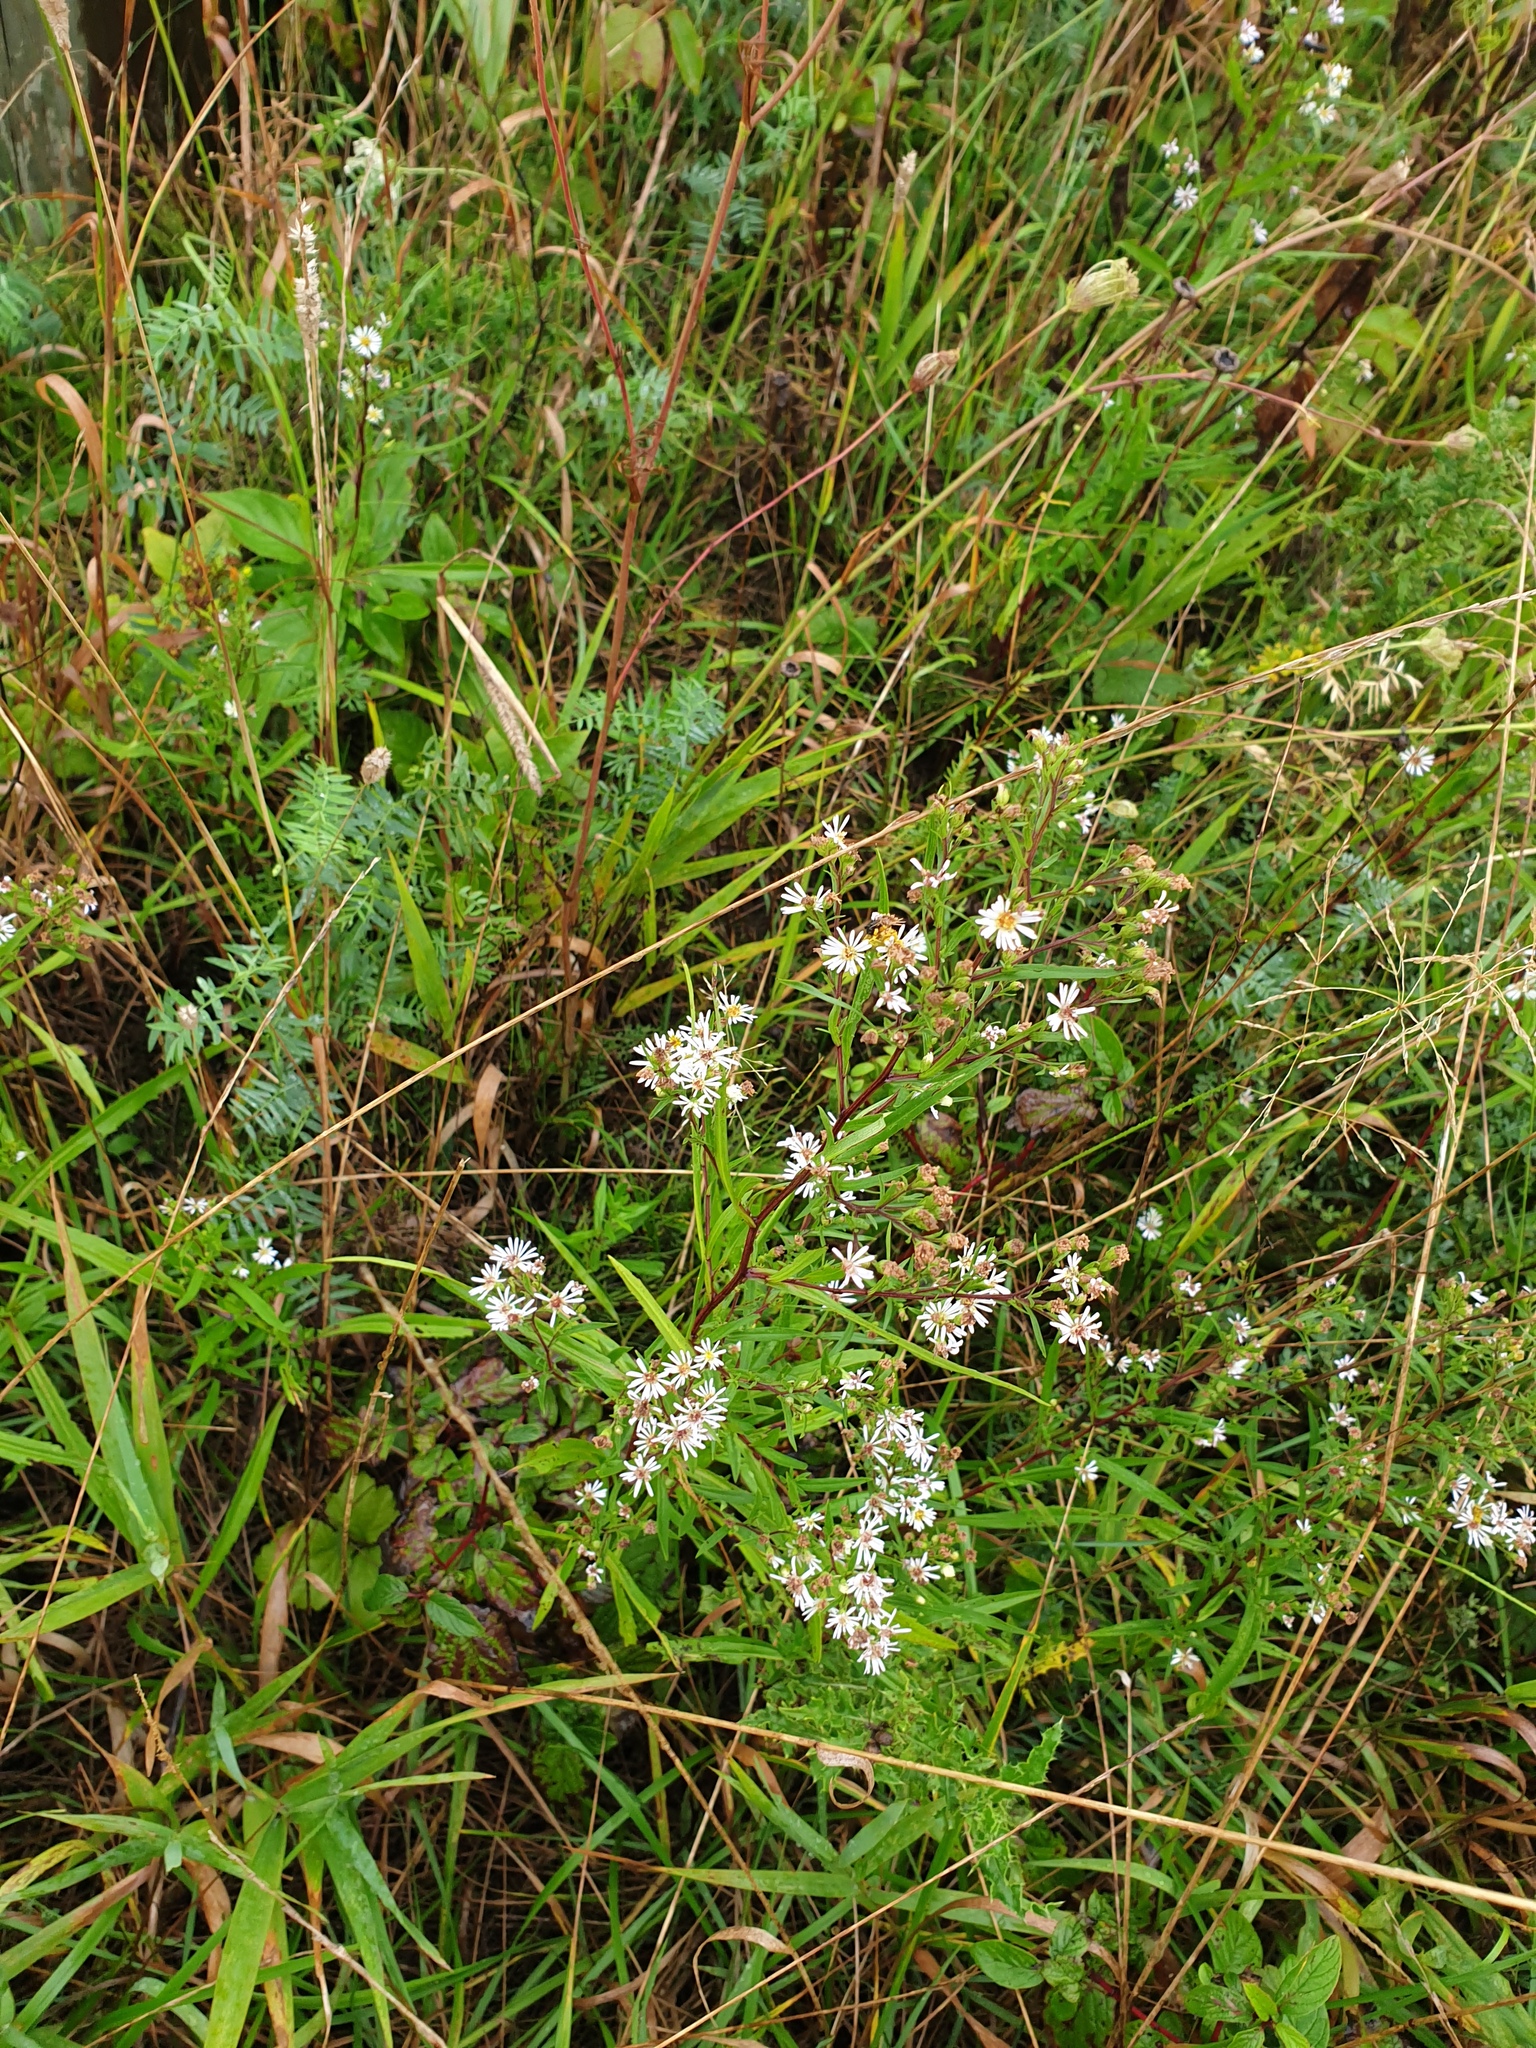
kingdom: Plantae
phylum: Tracheophyta
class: Magnoliopsida
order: Asterales
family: Asteraceae
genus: Symphyotrichum
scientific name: Symphyotrichum lanceolatum
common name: Panicled aster
